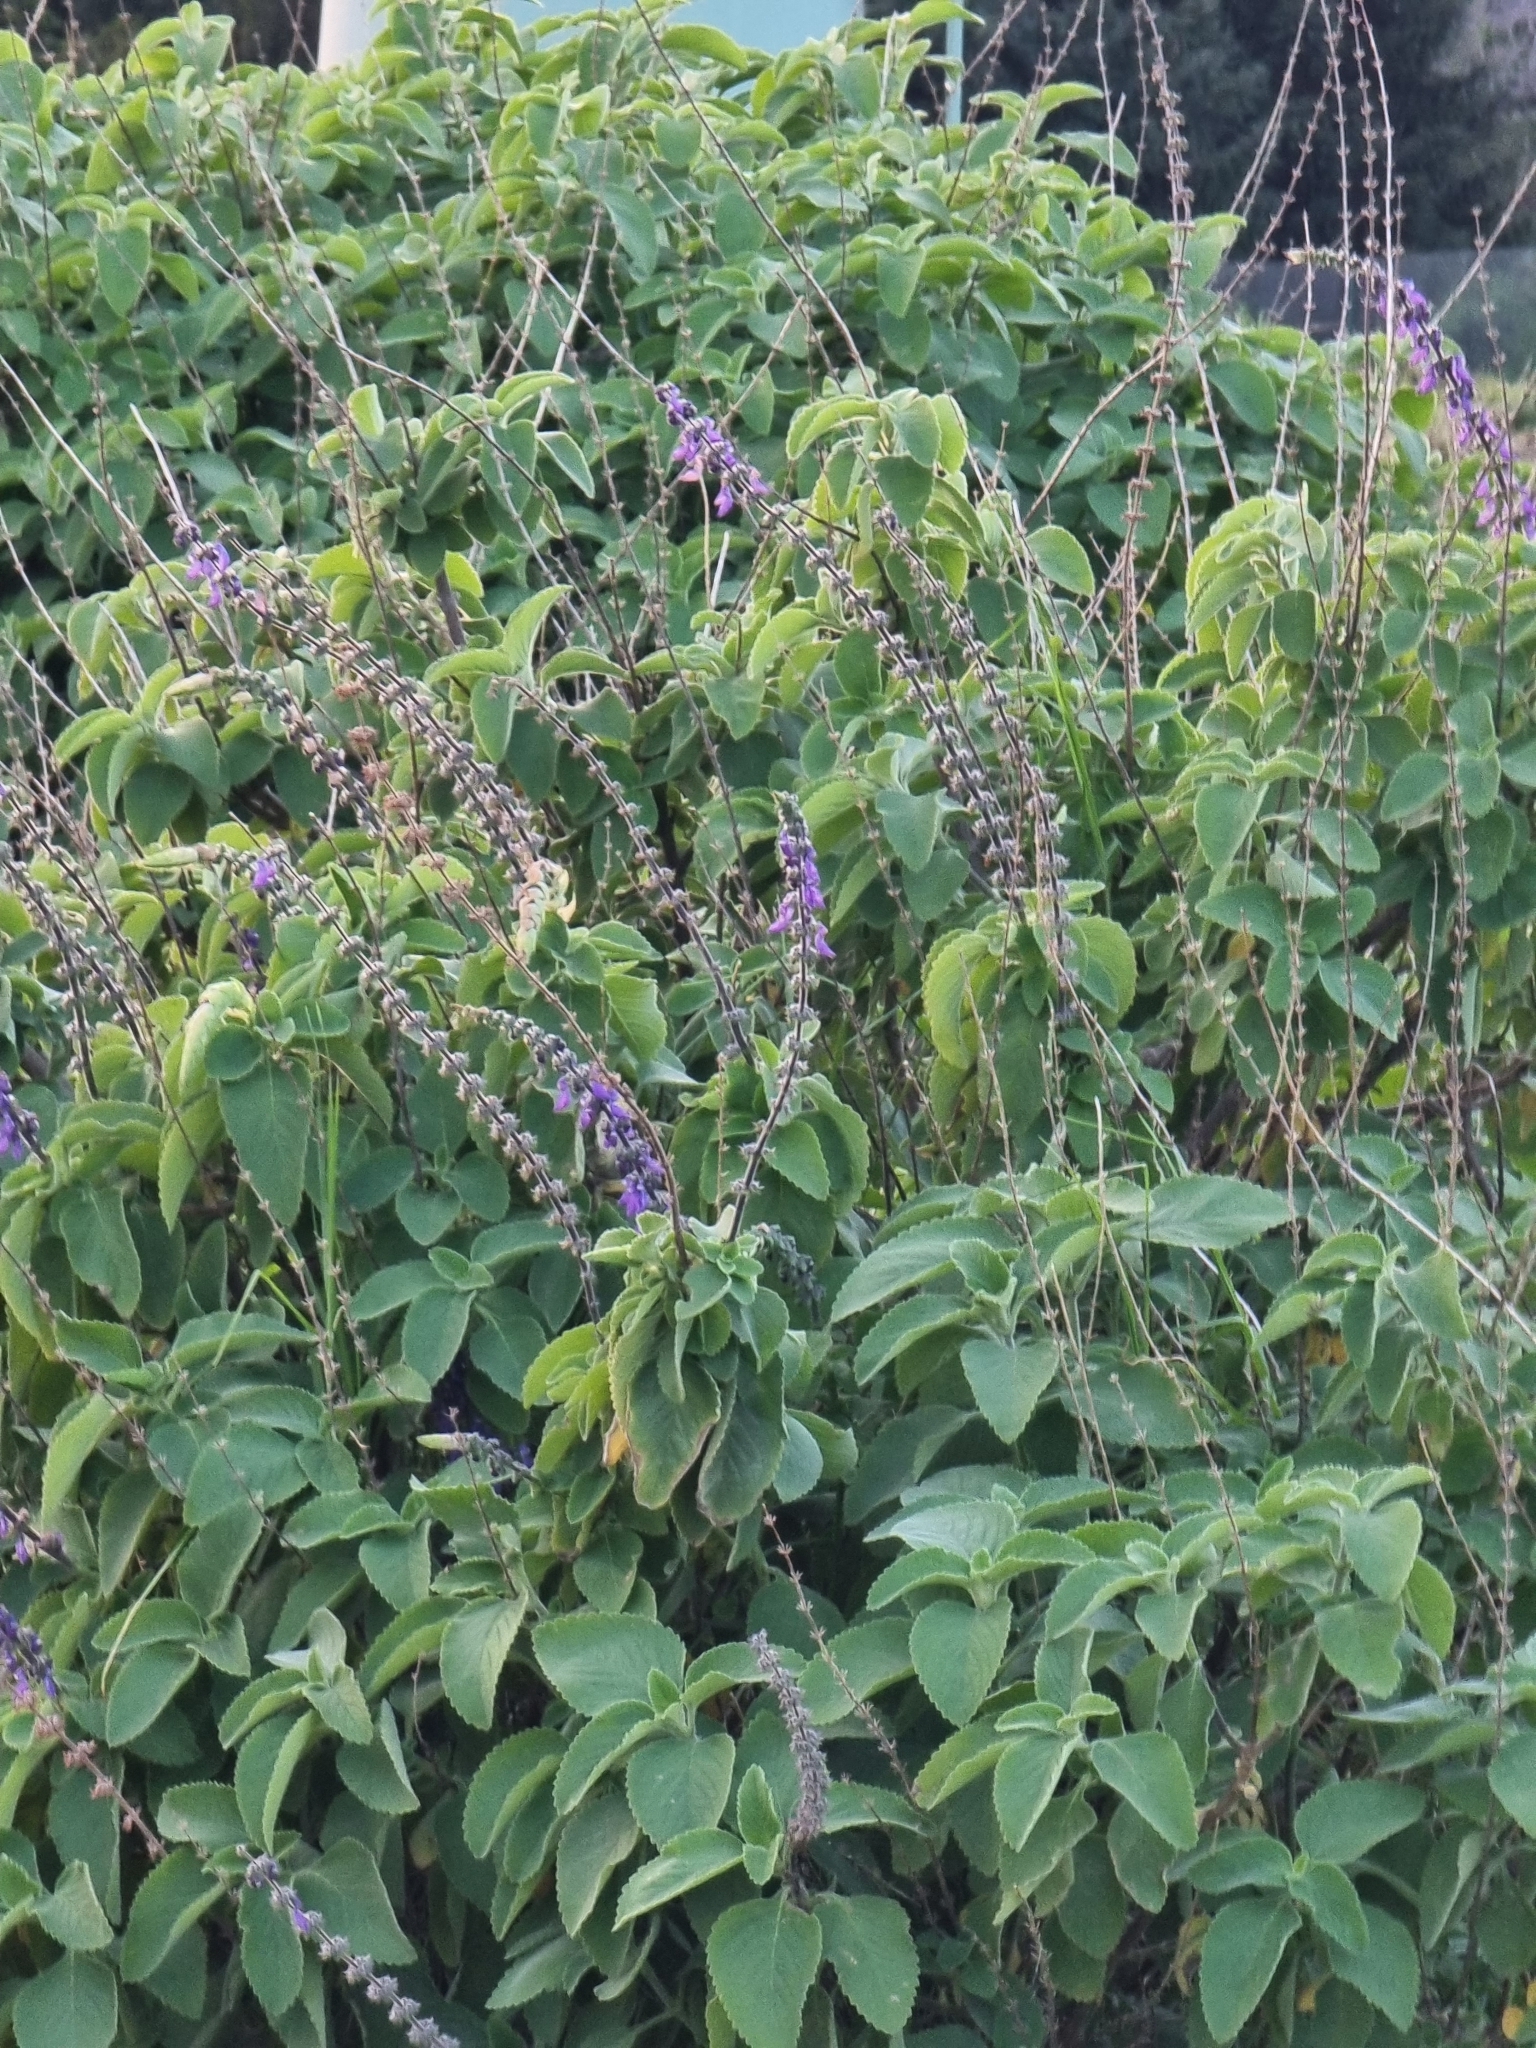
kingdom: Plantae
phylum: Tracheophyta
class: Magnoliopsida
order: Lamiales
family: Lamiaceae
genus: Coleus
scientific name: Coleus barbatus
